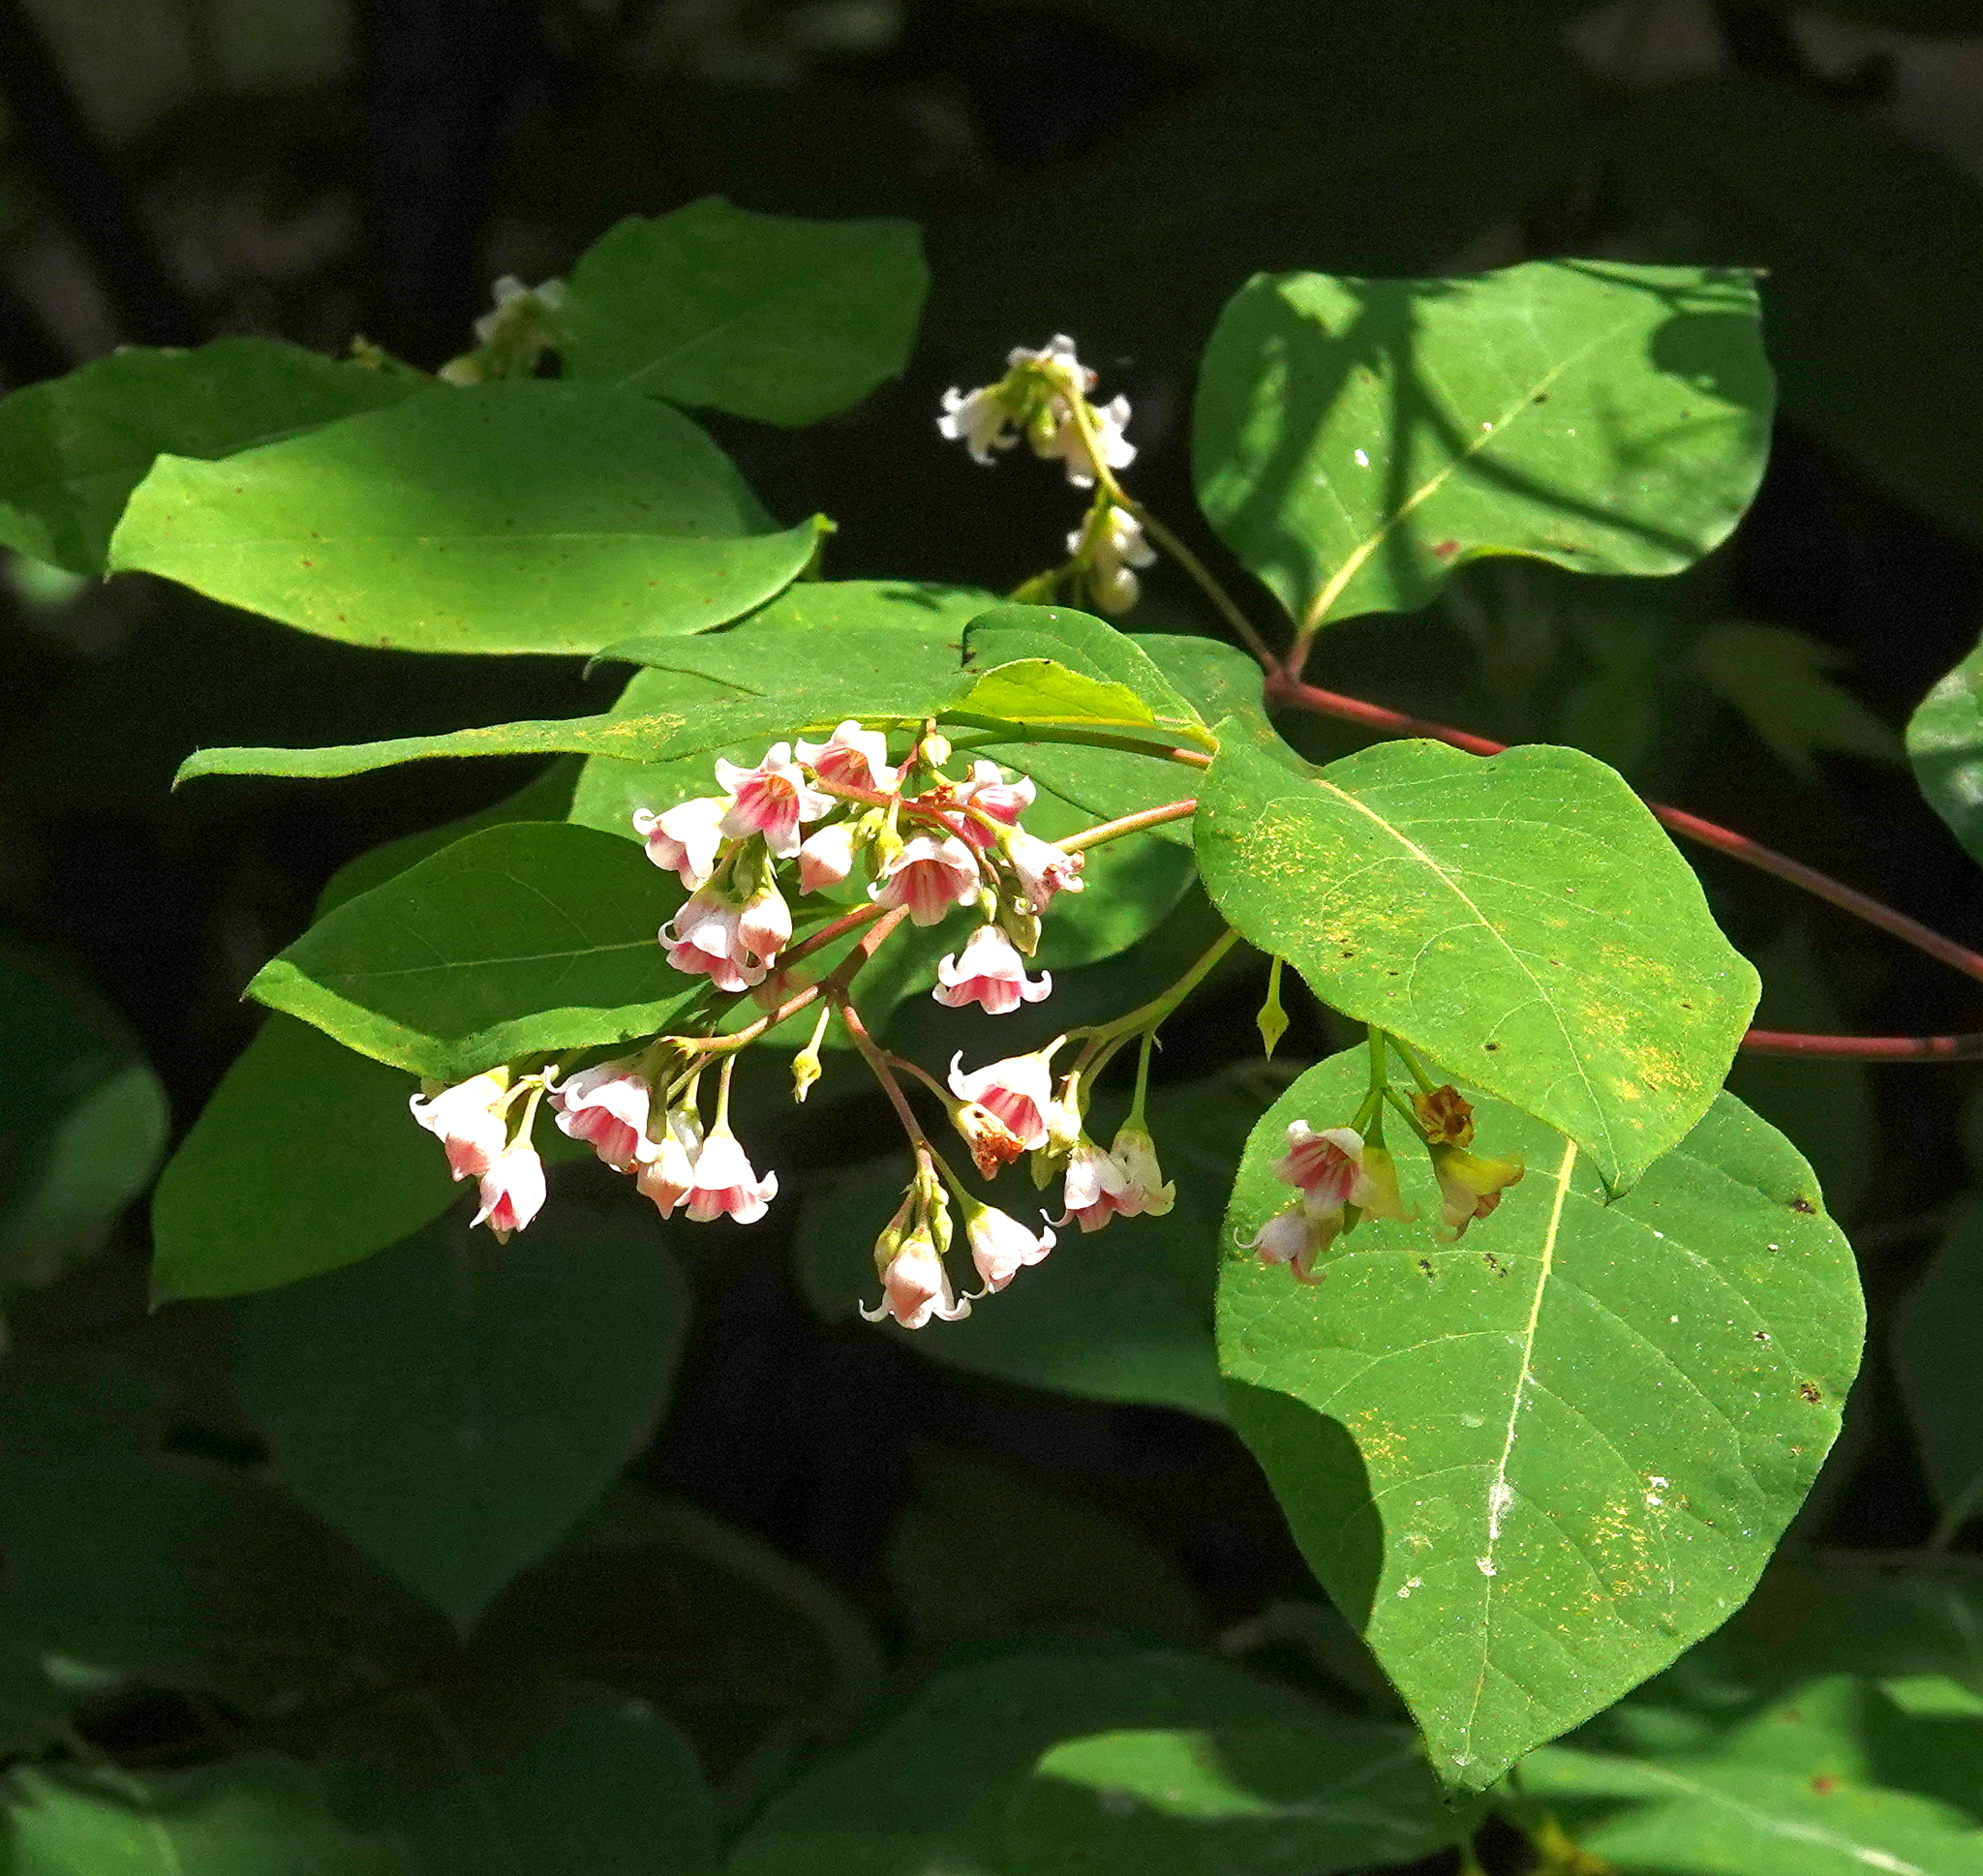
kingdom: Plantae
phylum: Tracheophyta
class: Magnoliopsida
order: Gentianales
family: Apocynaceae
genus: Apocynum
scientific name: Apocynum androsaemifolium
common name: Spreading dogbane
